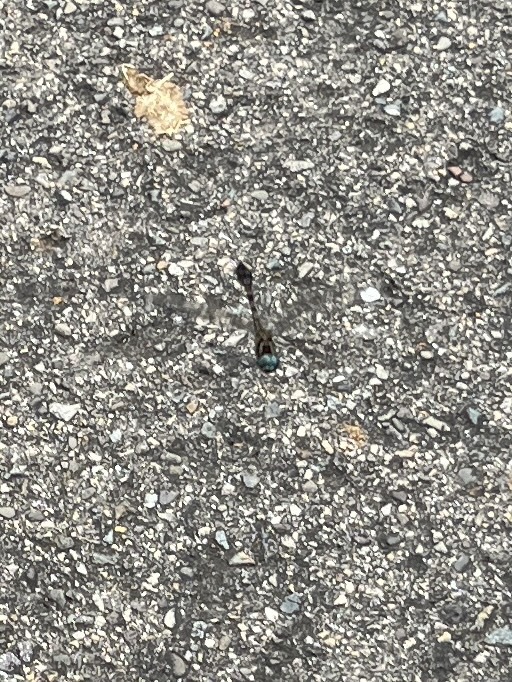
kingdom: Animalia
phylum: Arthropoda
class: Insecta
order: Odonata
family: Libellulidae
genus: Scapanea
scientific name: Scapanea frontalis
